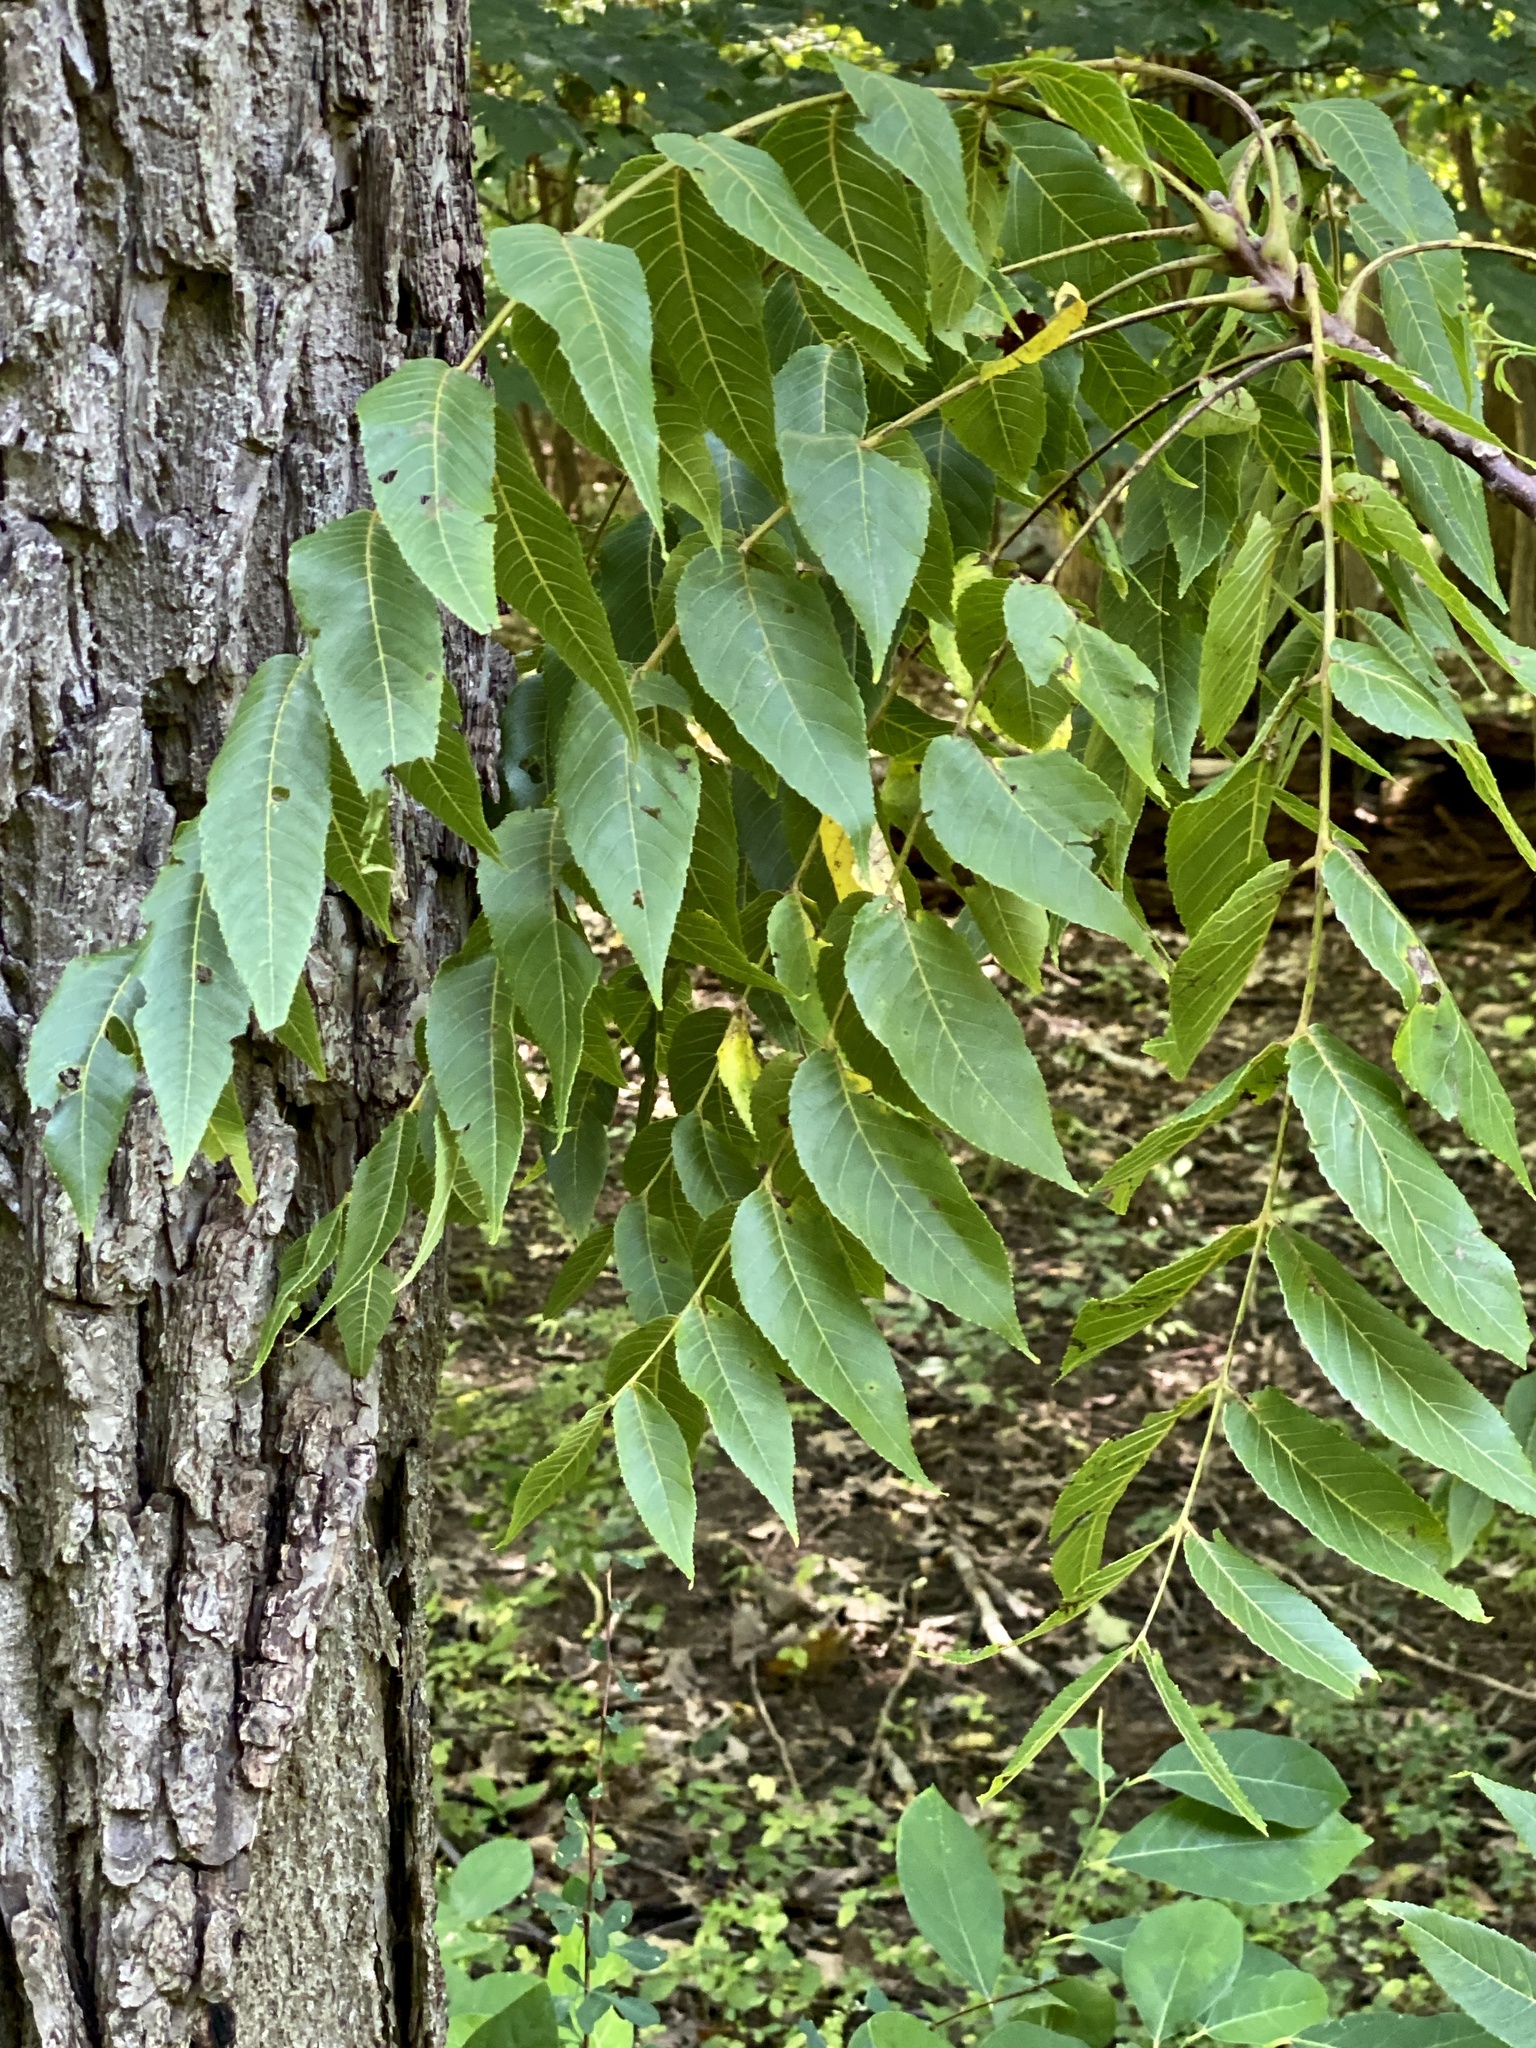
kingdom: Plantae
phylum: Tracheophyta
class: Magnoliopsida
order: Fagales
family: Juglandaceae
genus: Juglans
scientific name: Juglans nigra
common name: Black walnut
